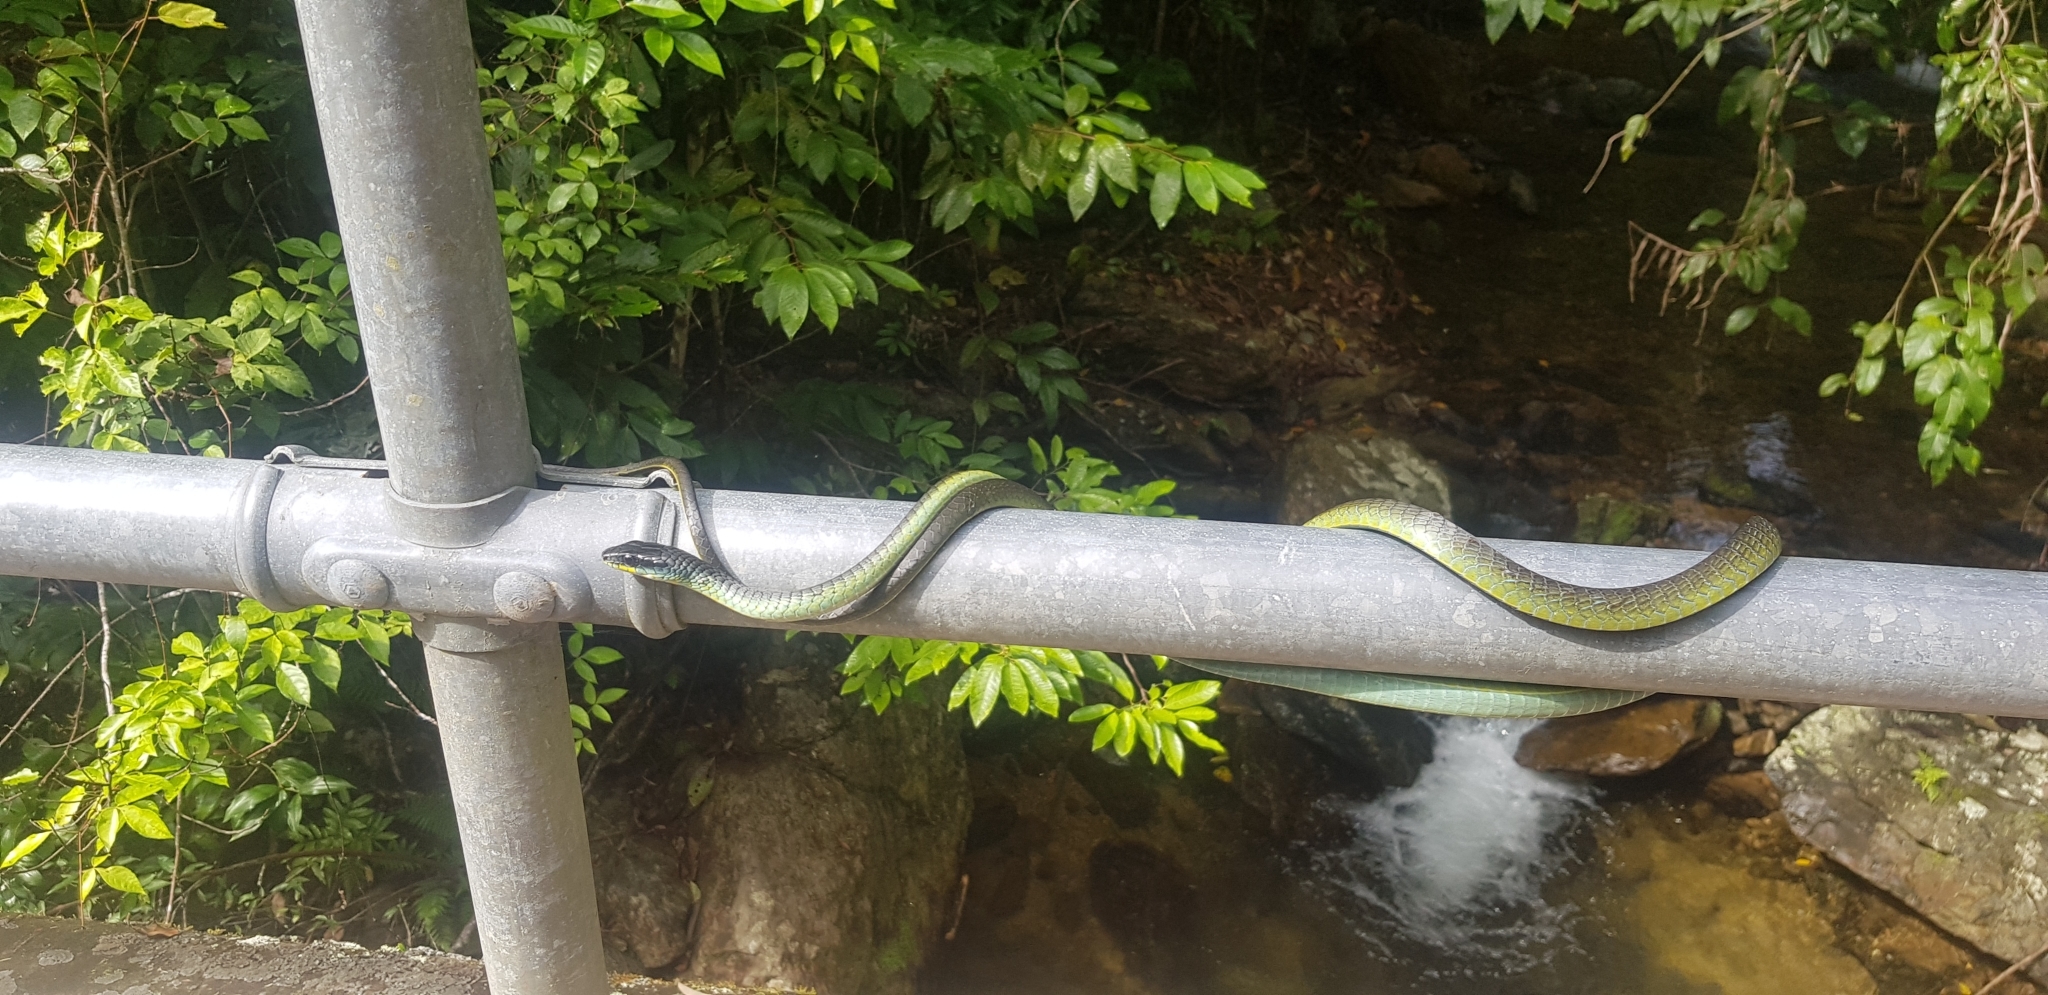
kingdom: Animalia
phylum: Chordata
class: Squamata
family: Colubridae
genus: Dendrelaphis
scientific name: Dendrelaphis punctulatus
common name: Common tree snake
